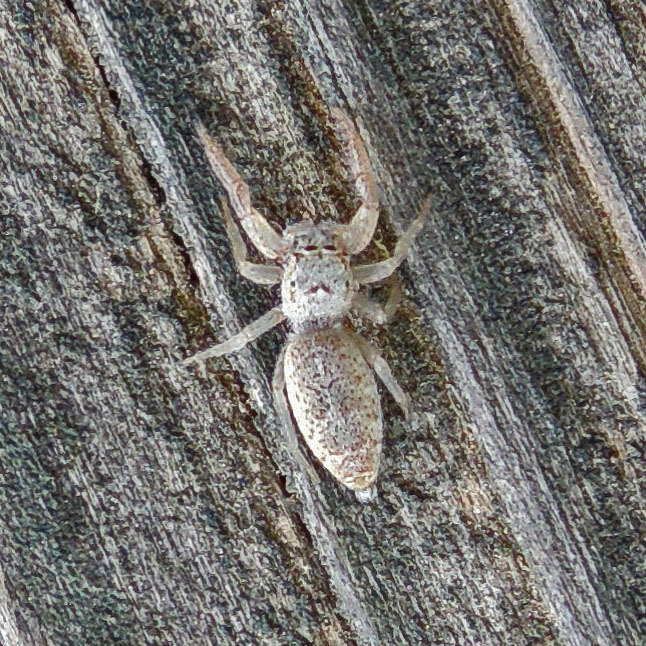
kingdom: Animalia
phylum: Arthropoda
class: Arachnida
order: Araneae
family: Salticidae
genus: Hentzia
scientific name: Hentzia mitrata
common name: White-jawed jumping spider
